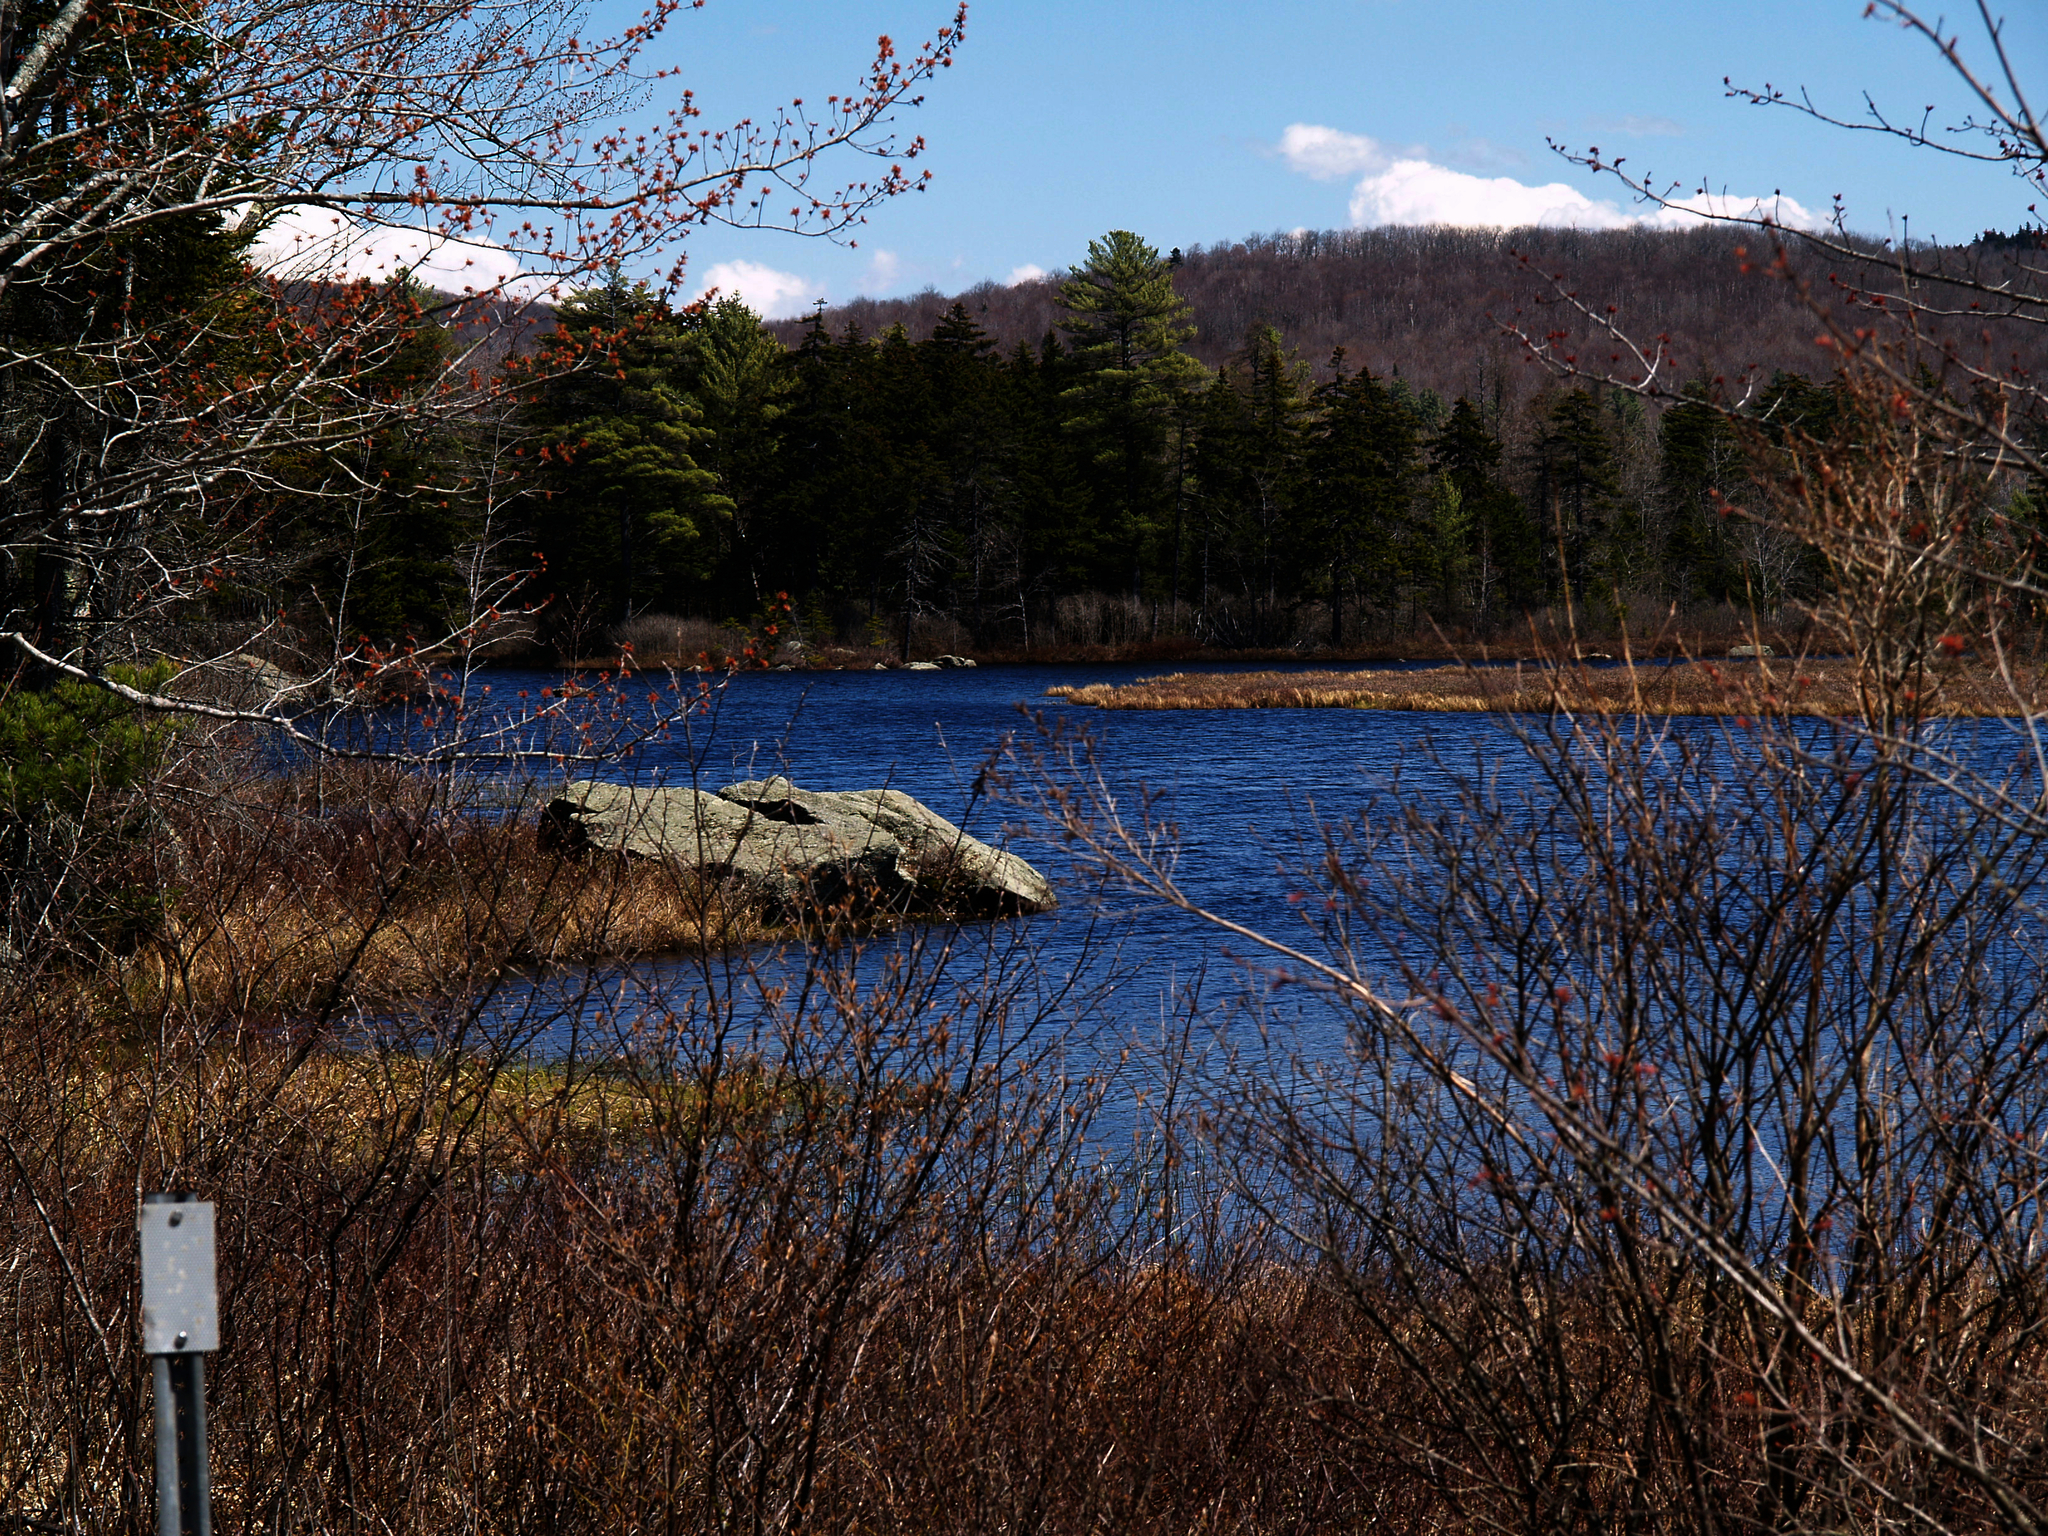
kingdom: Plantae
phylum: Tracheophyta
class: Pinopsida
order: Pinales
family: Pinaceae
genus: Pinus
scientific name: Pinus strobus
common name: Weymouth pine
